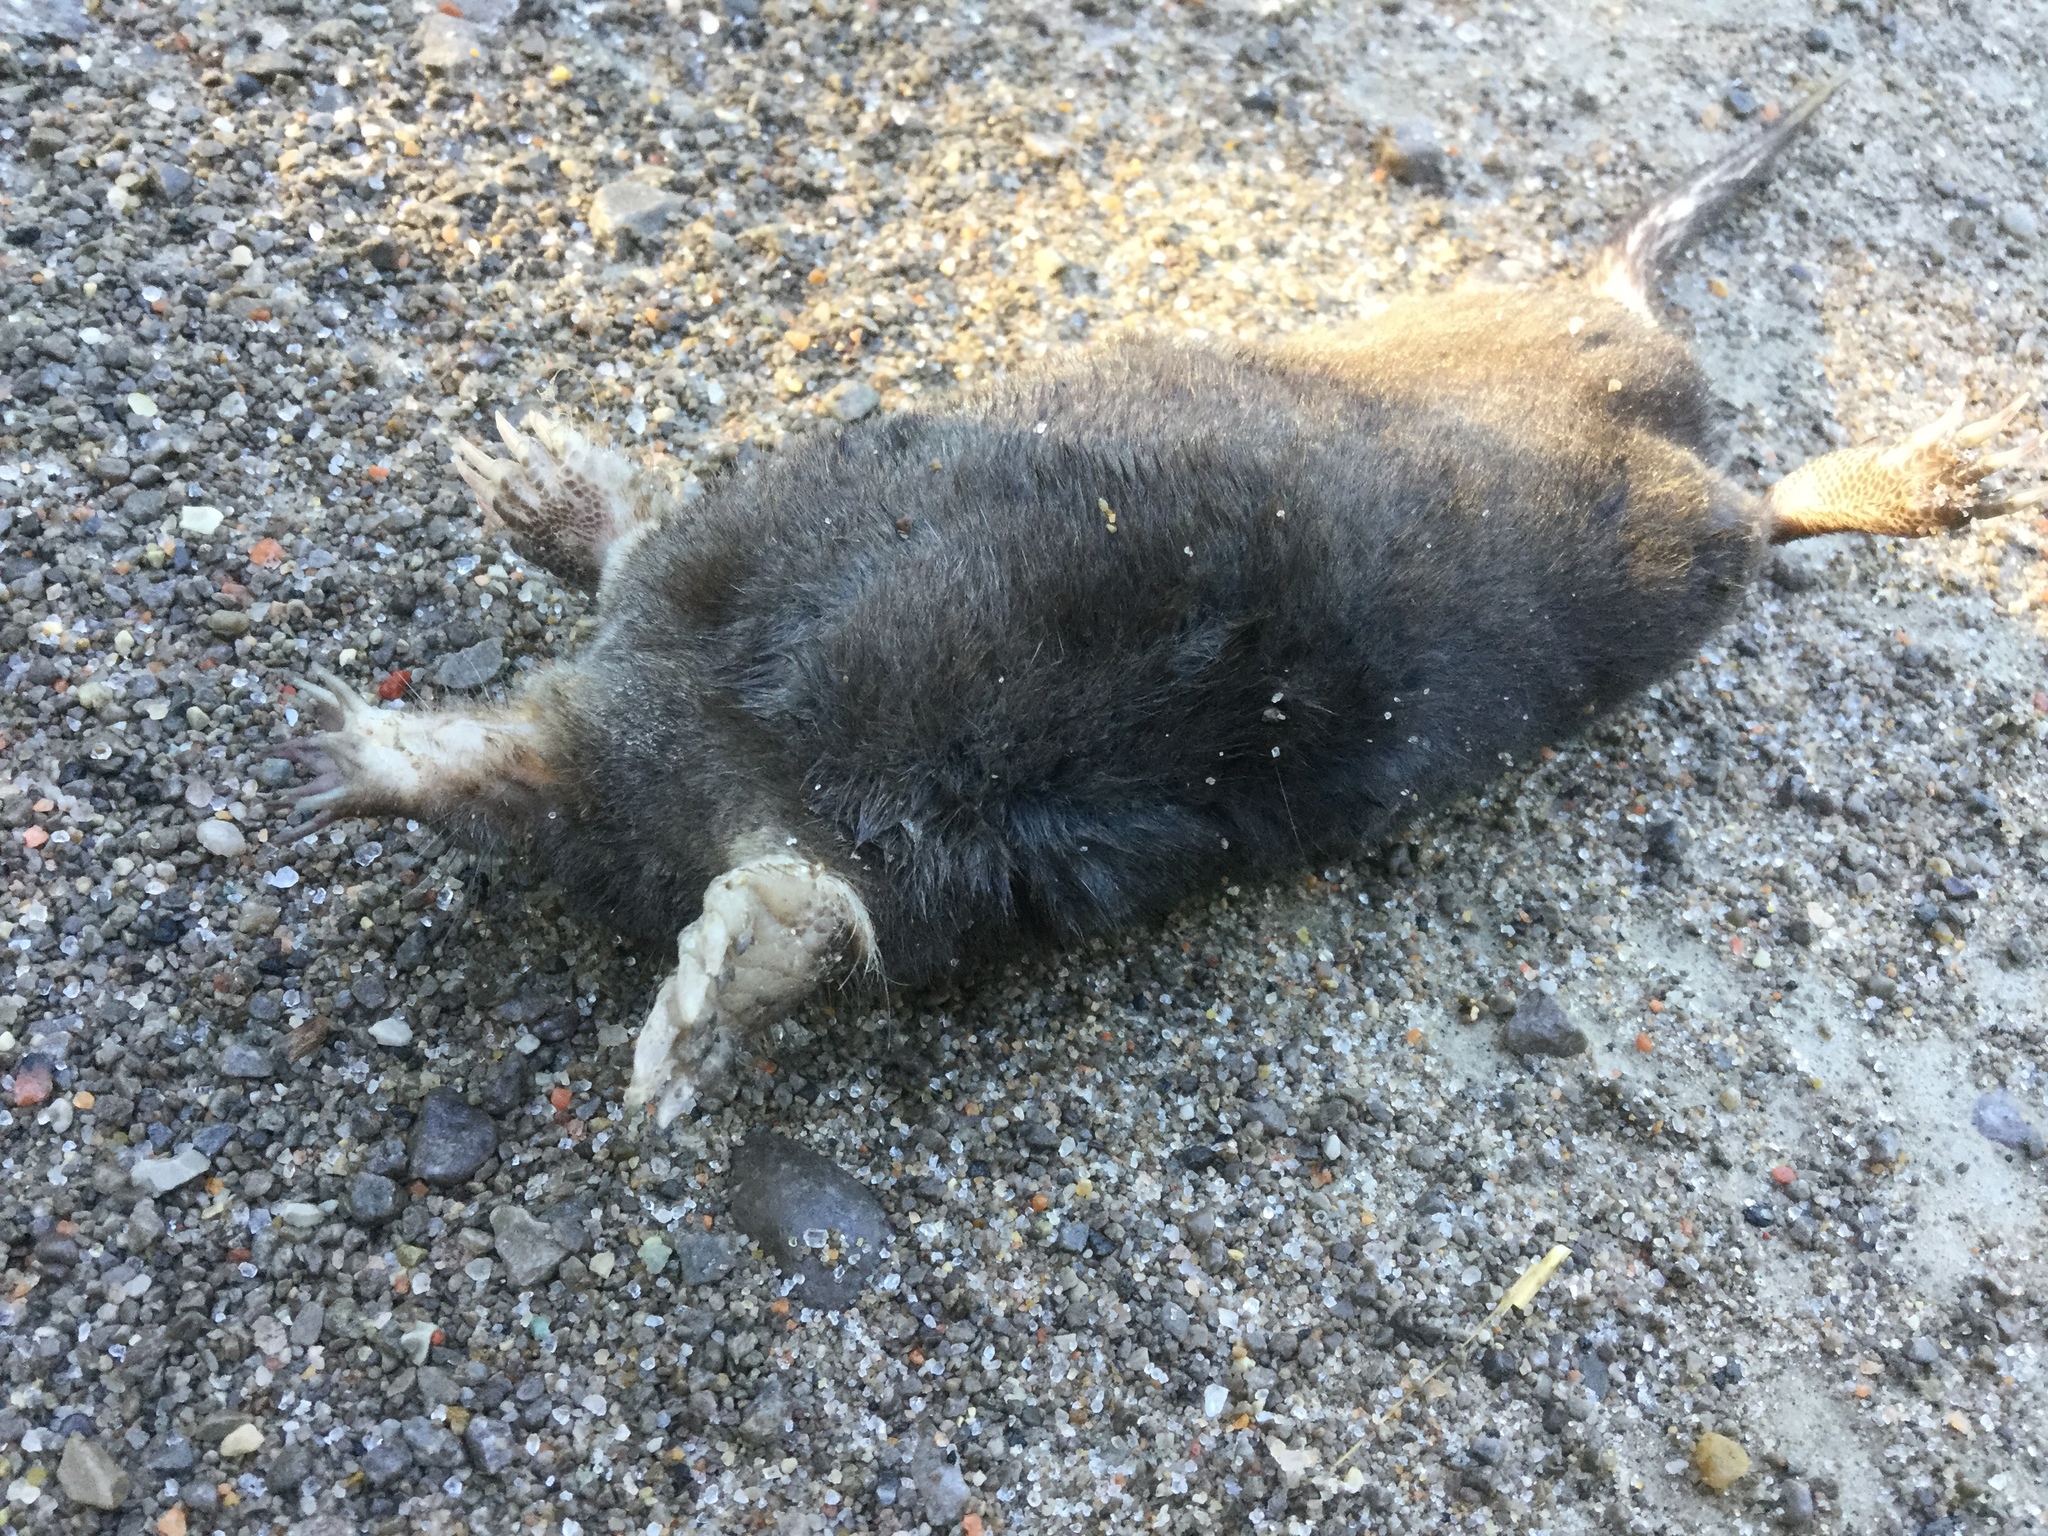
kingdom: Animalia
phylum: Chordata
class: Mammalia
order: Soricomorpha
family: Talpidae
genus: Condylura
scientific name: Condylura cristata
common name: Star-nosed mole
